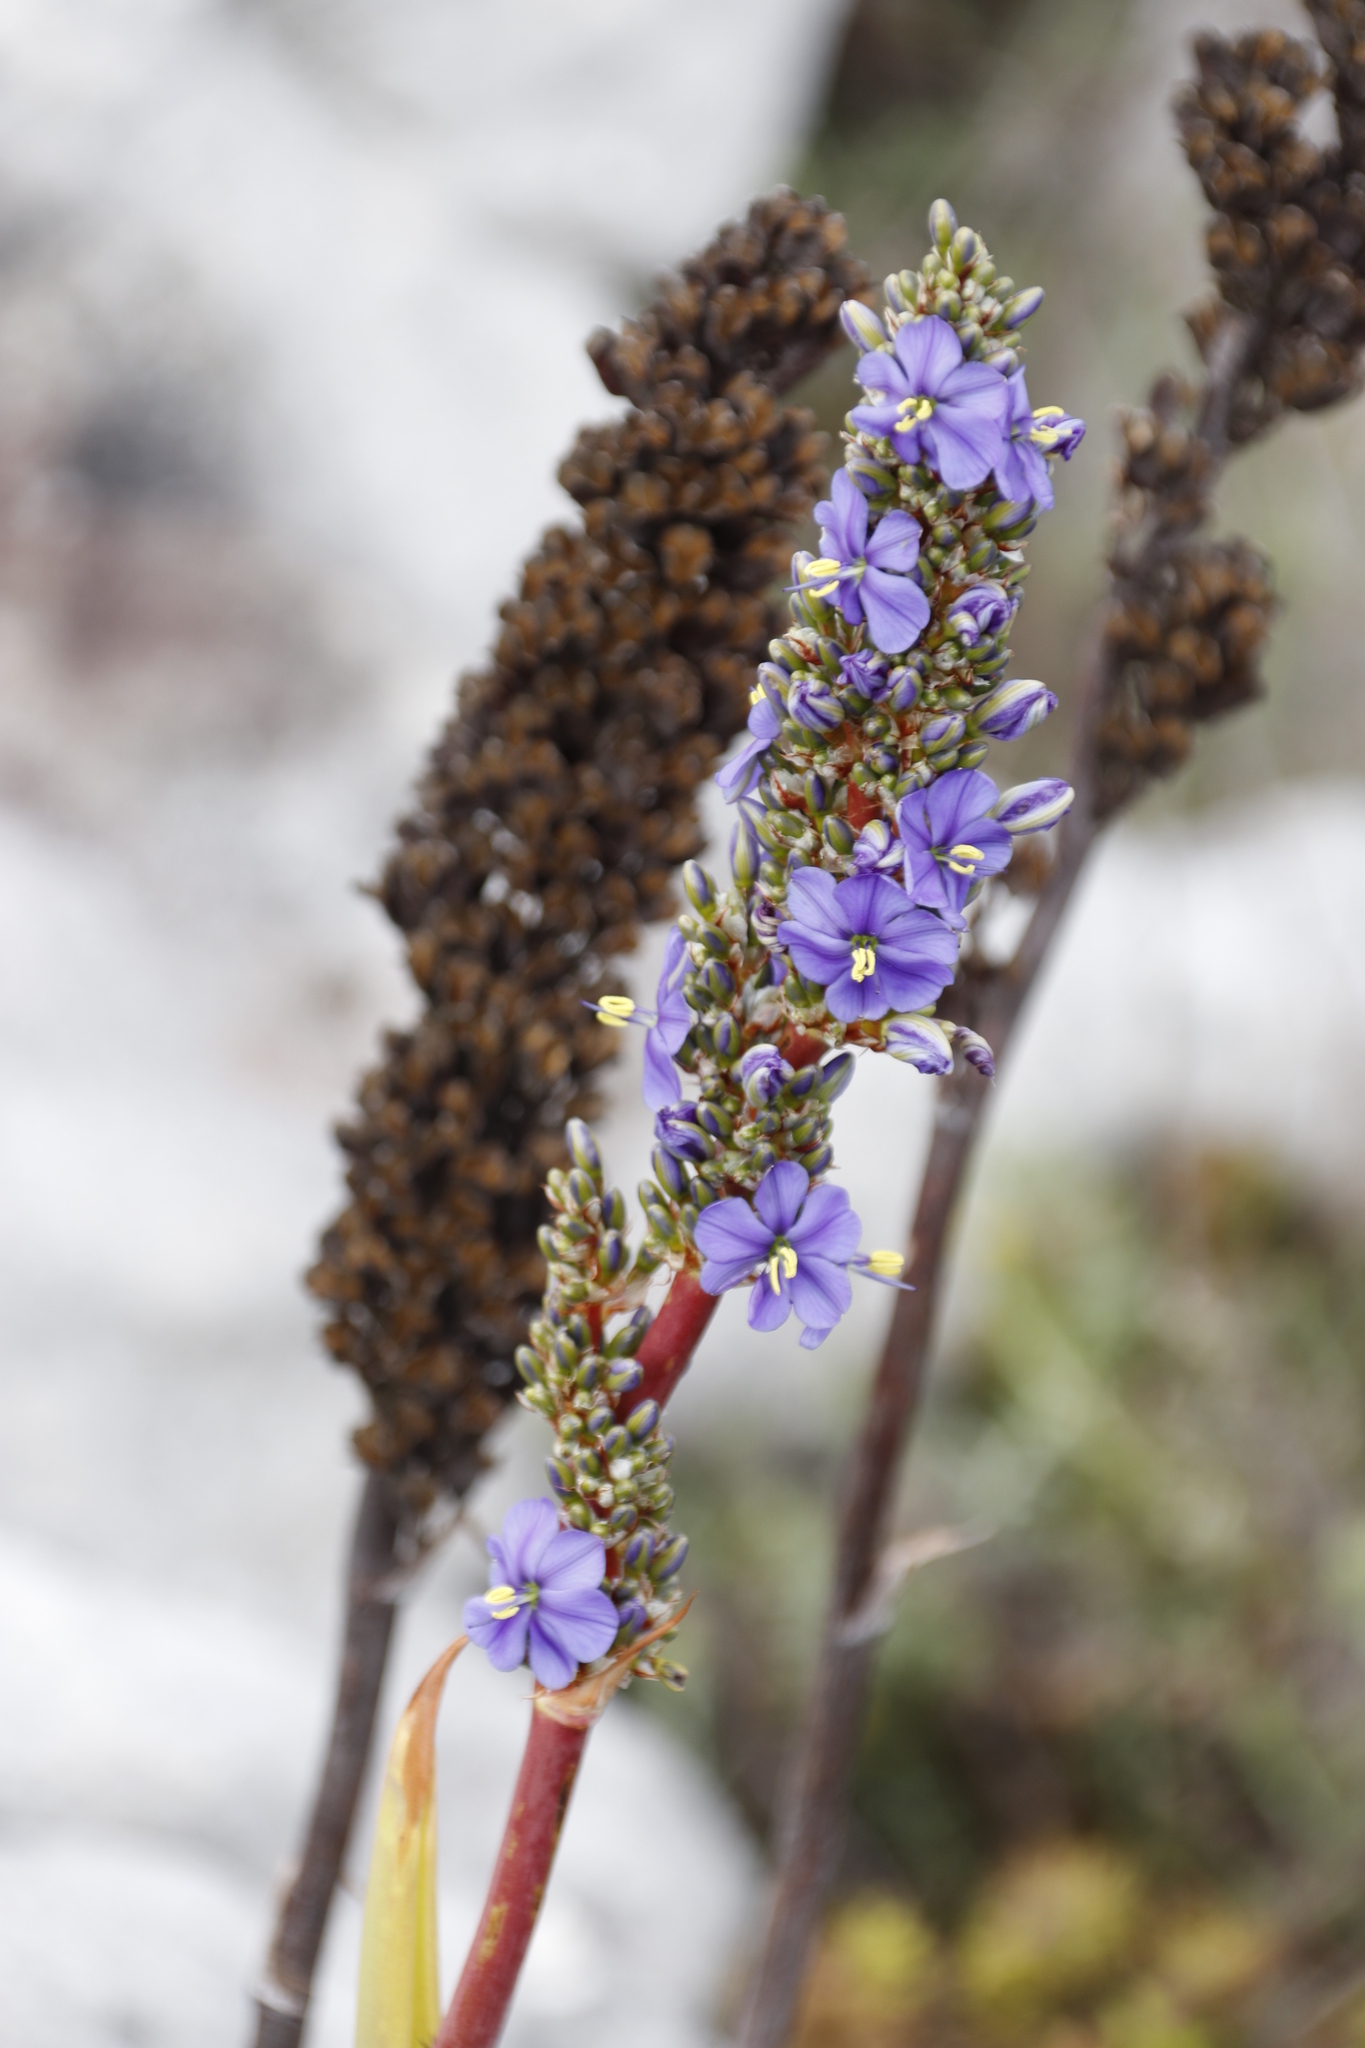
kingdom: Plantae
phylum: Tracheophyta
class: Liliopsida
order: Asparagales
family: Iridaceae
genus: Aristea
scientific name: Aristea capitata
